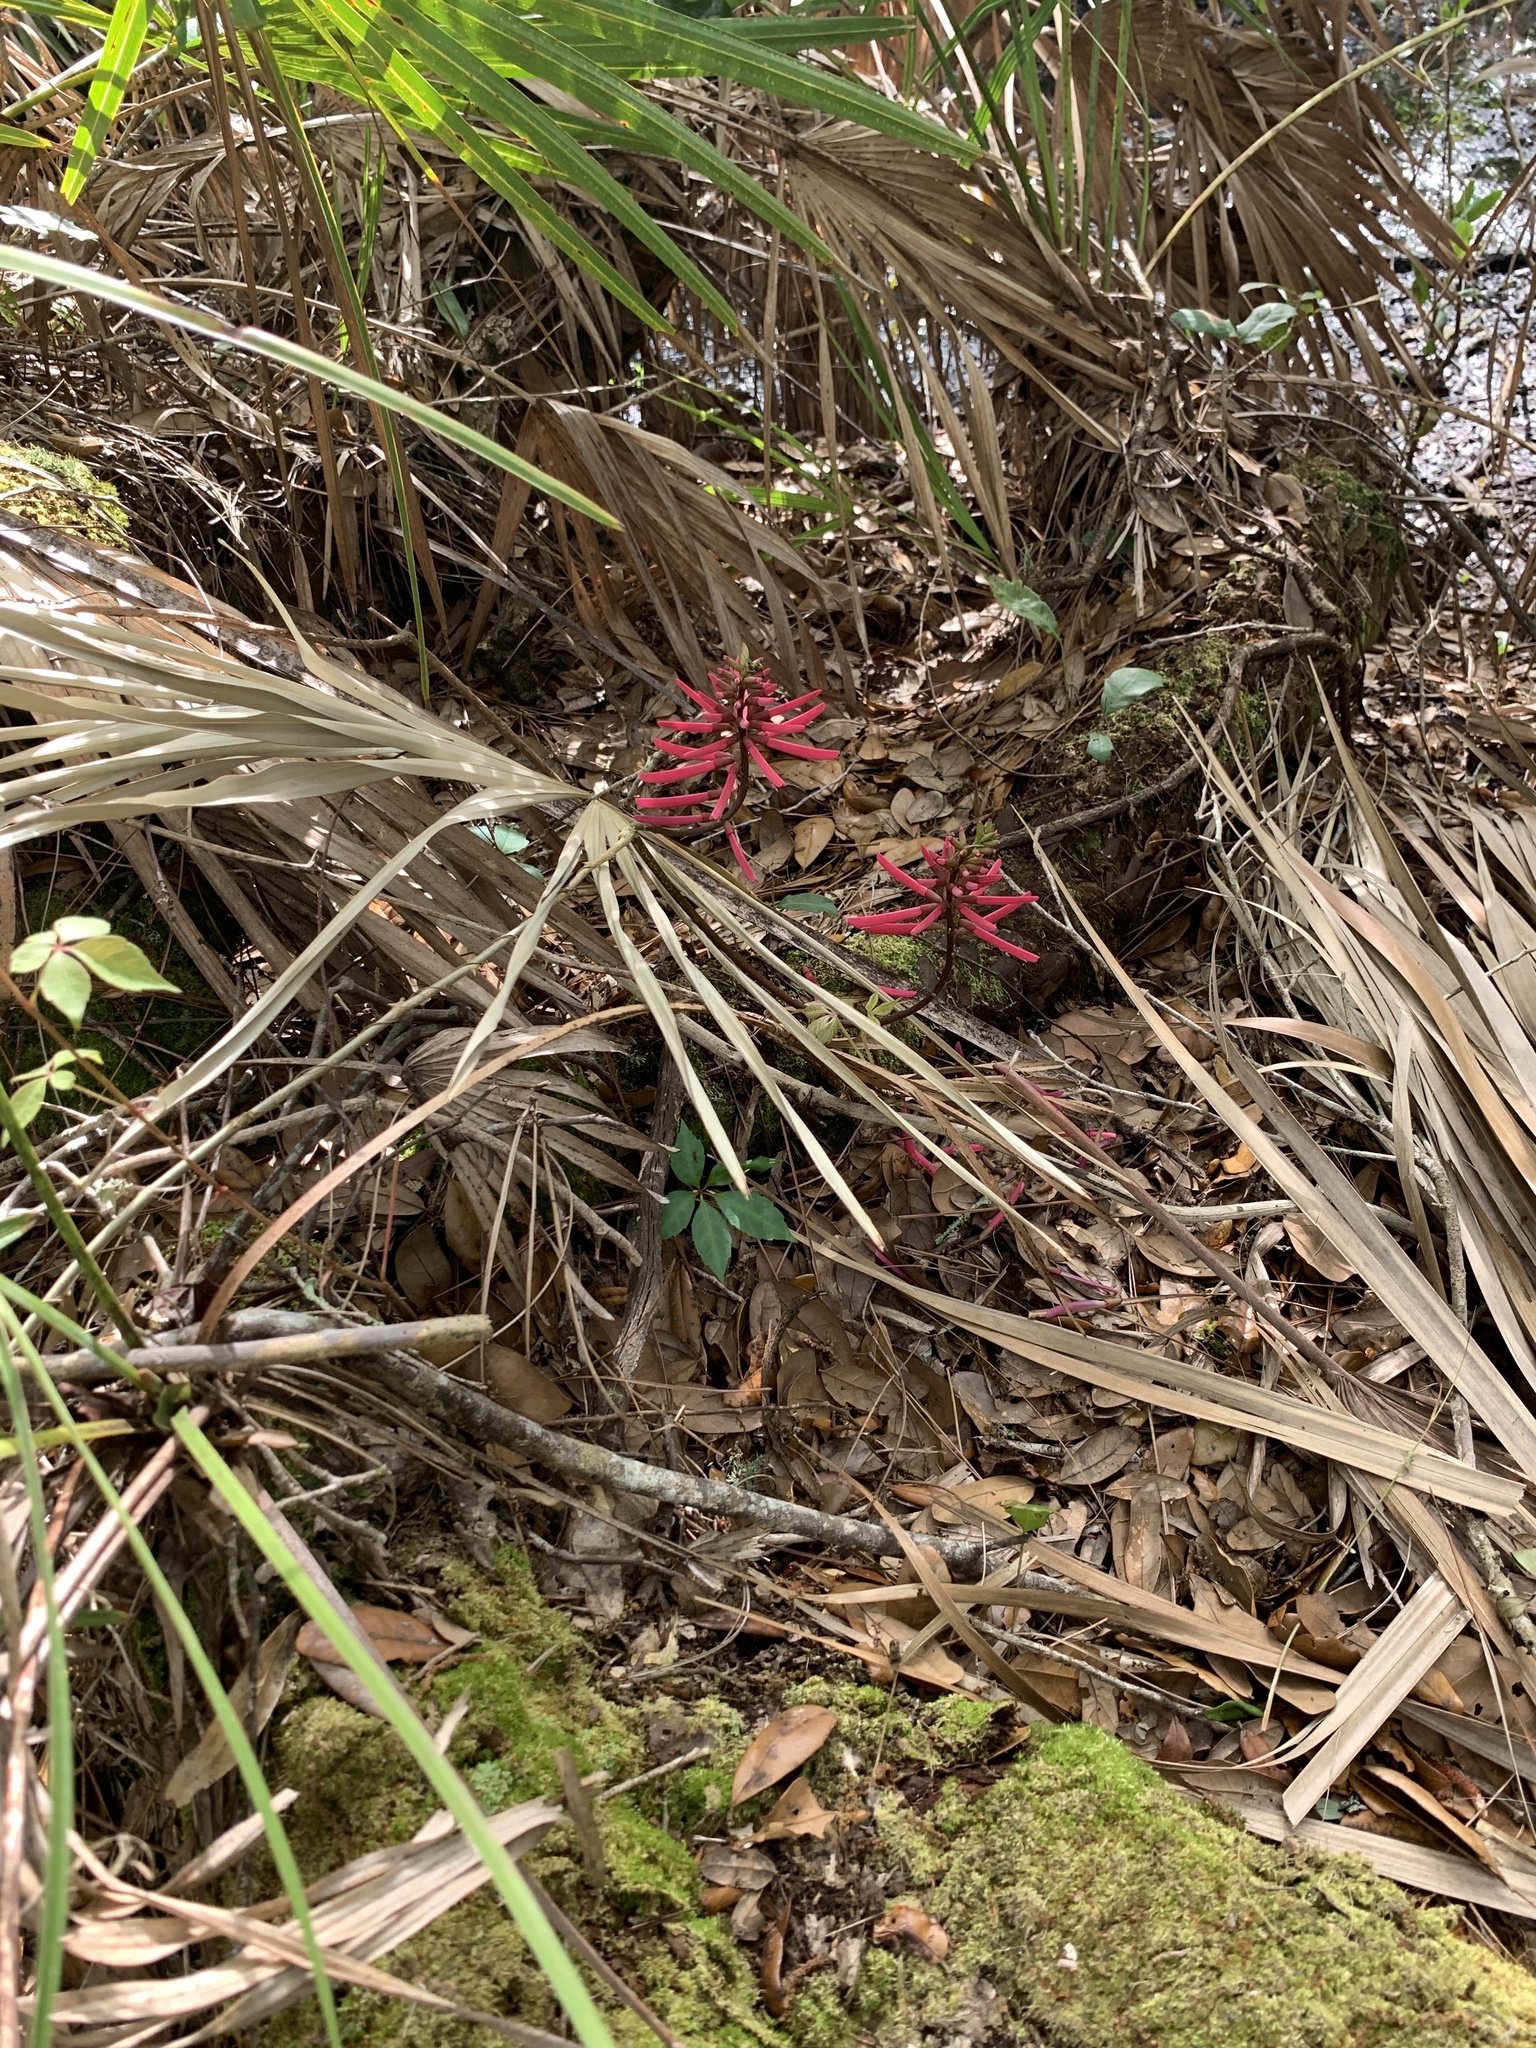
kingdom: Plantae
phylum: Tracheophyta
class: Magnoliopsida
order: Fabales
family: Fabaceae
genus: Erythrina
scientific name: Erythrina herbacea
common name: Coral-bean
